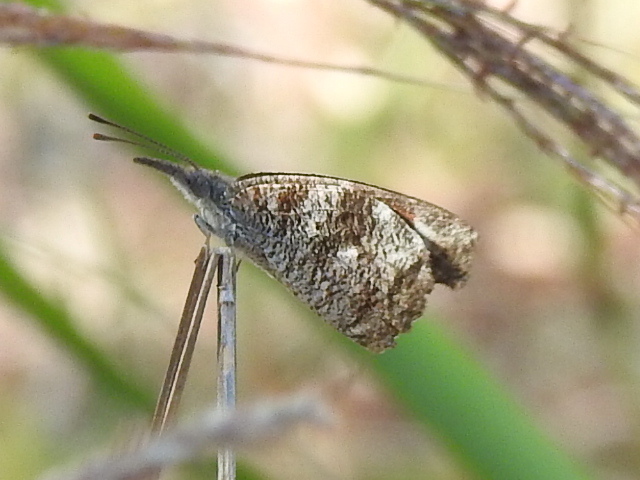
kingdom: Animalia
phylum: Arthropoda
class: Insecta
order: Lepidoptera
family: Nymphalidae
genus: Libytheana
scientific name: Libytheana carinenta
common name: American snout
